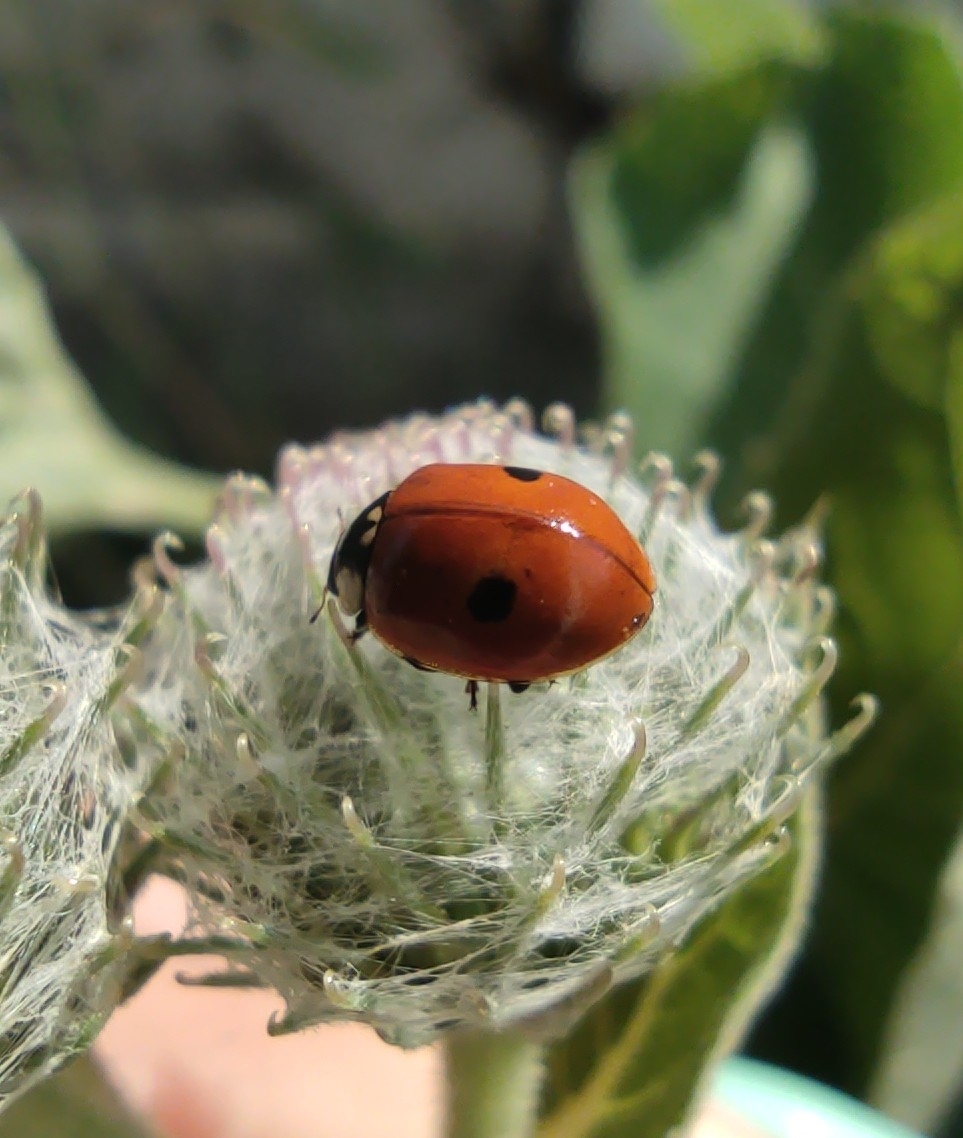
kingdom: Animalia
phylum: Arthropoda
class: Insecta
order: Coleoptera
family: Coccinellidae
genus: Adalia
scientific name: Adalia bipunctata
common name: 2-spot ladybird
